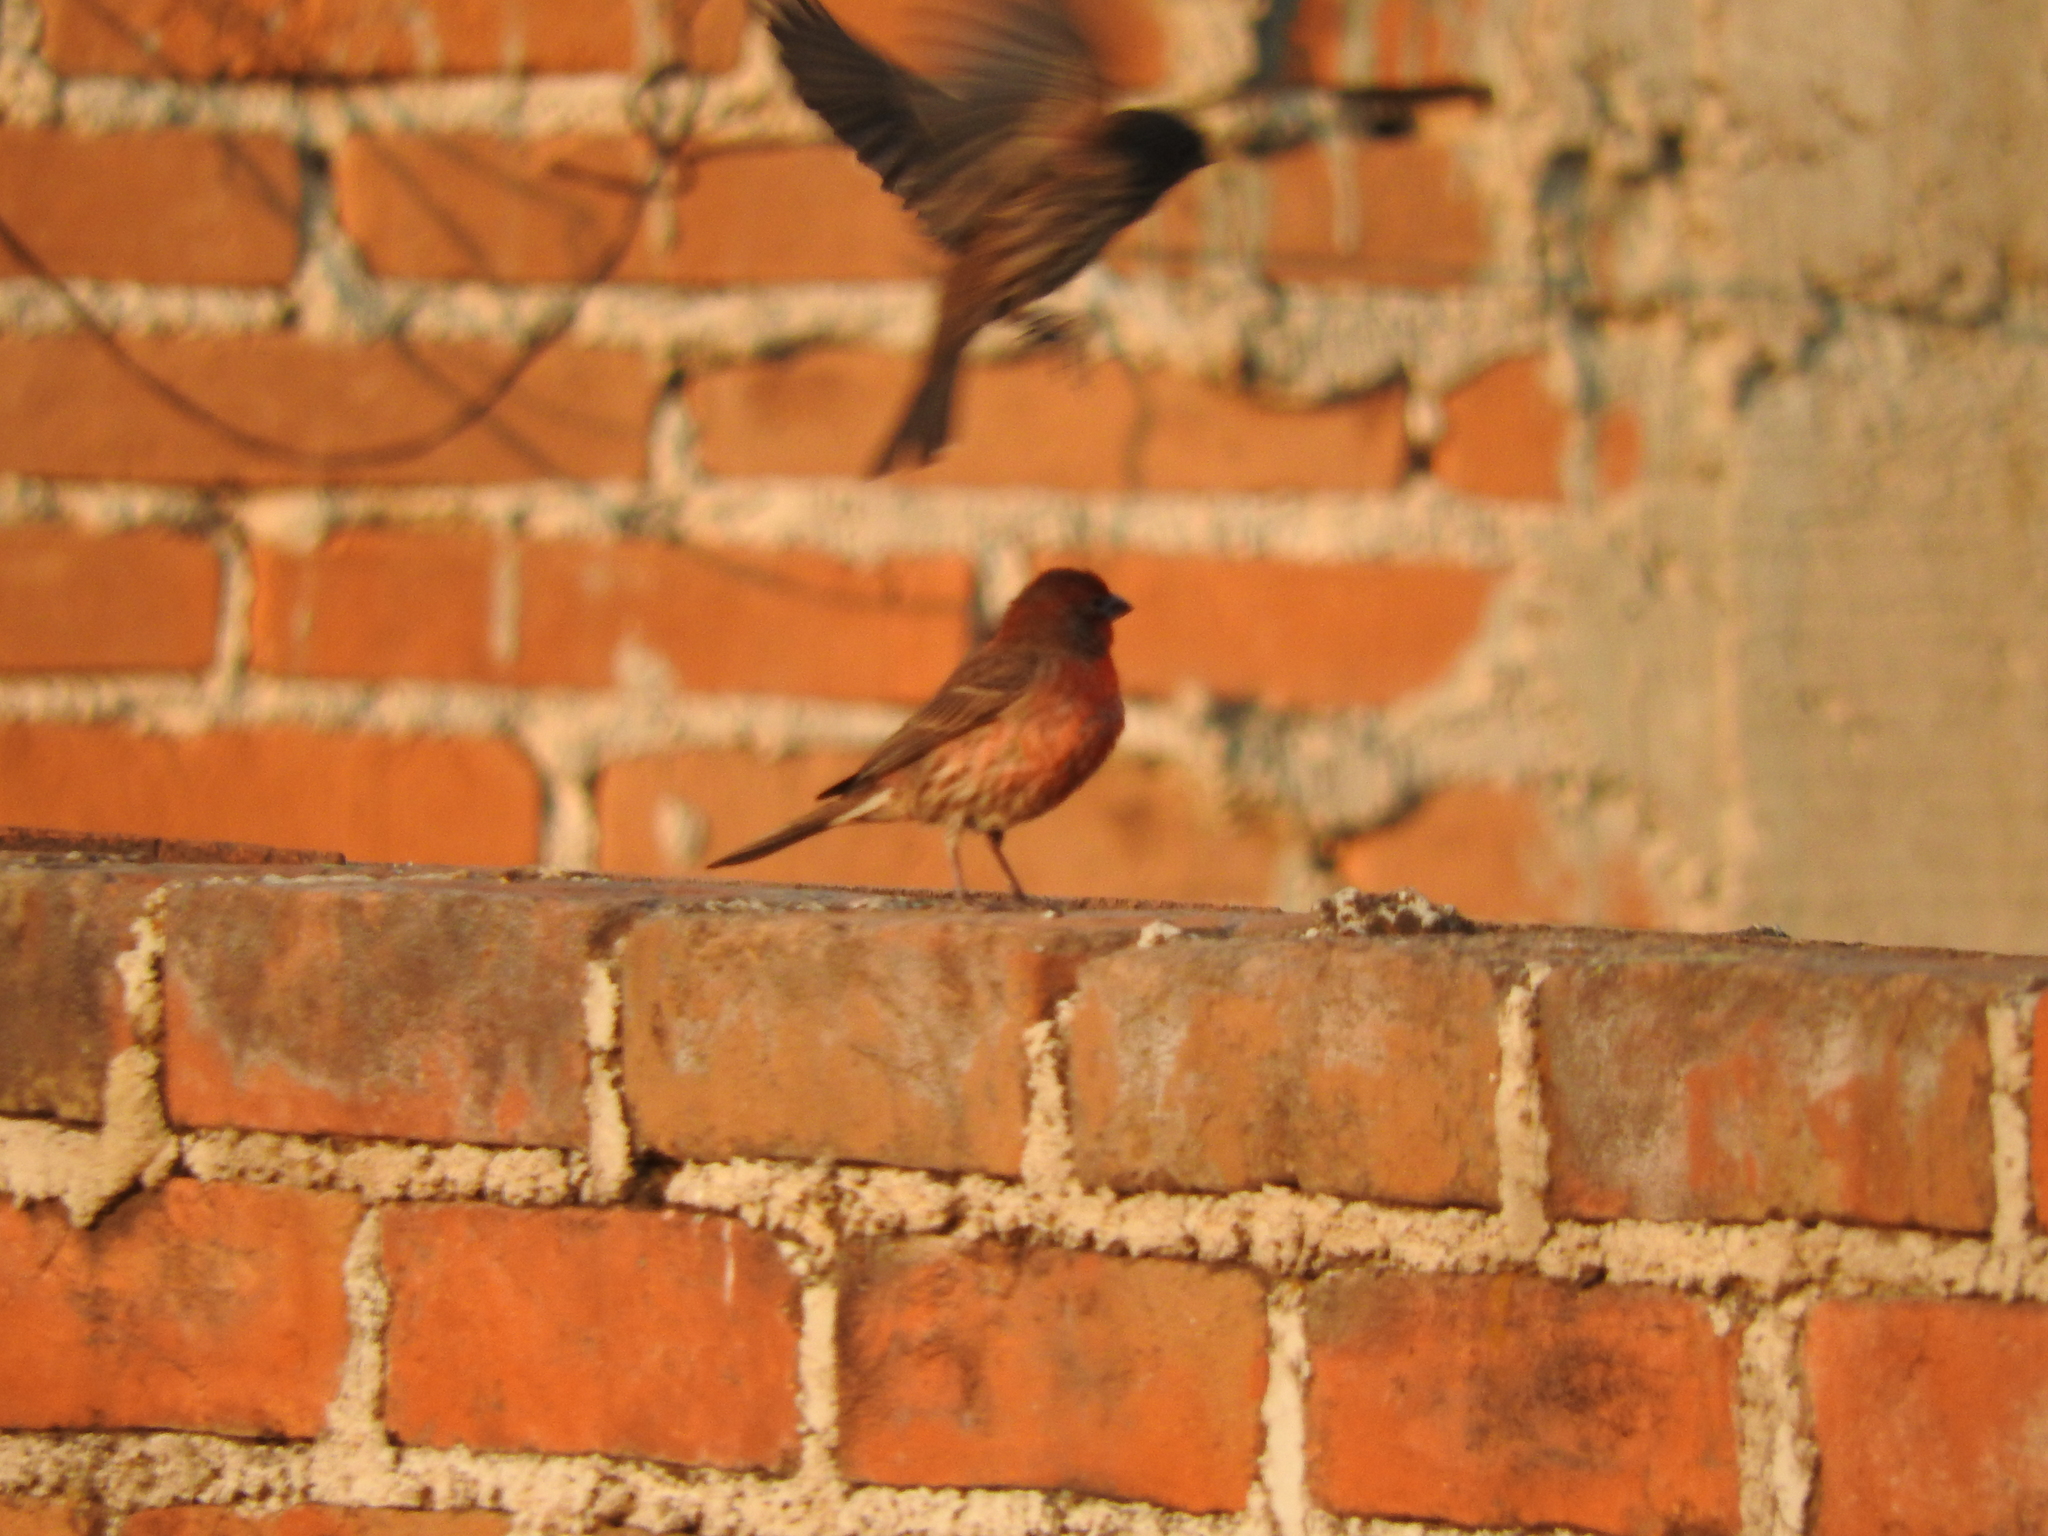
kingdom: Animalia
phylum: Chordata
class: Aves
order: Passeriformes
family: Fringillidae
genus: Haemorhous
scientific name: Haemorhous mexicanus
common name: House finch
